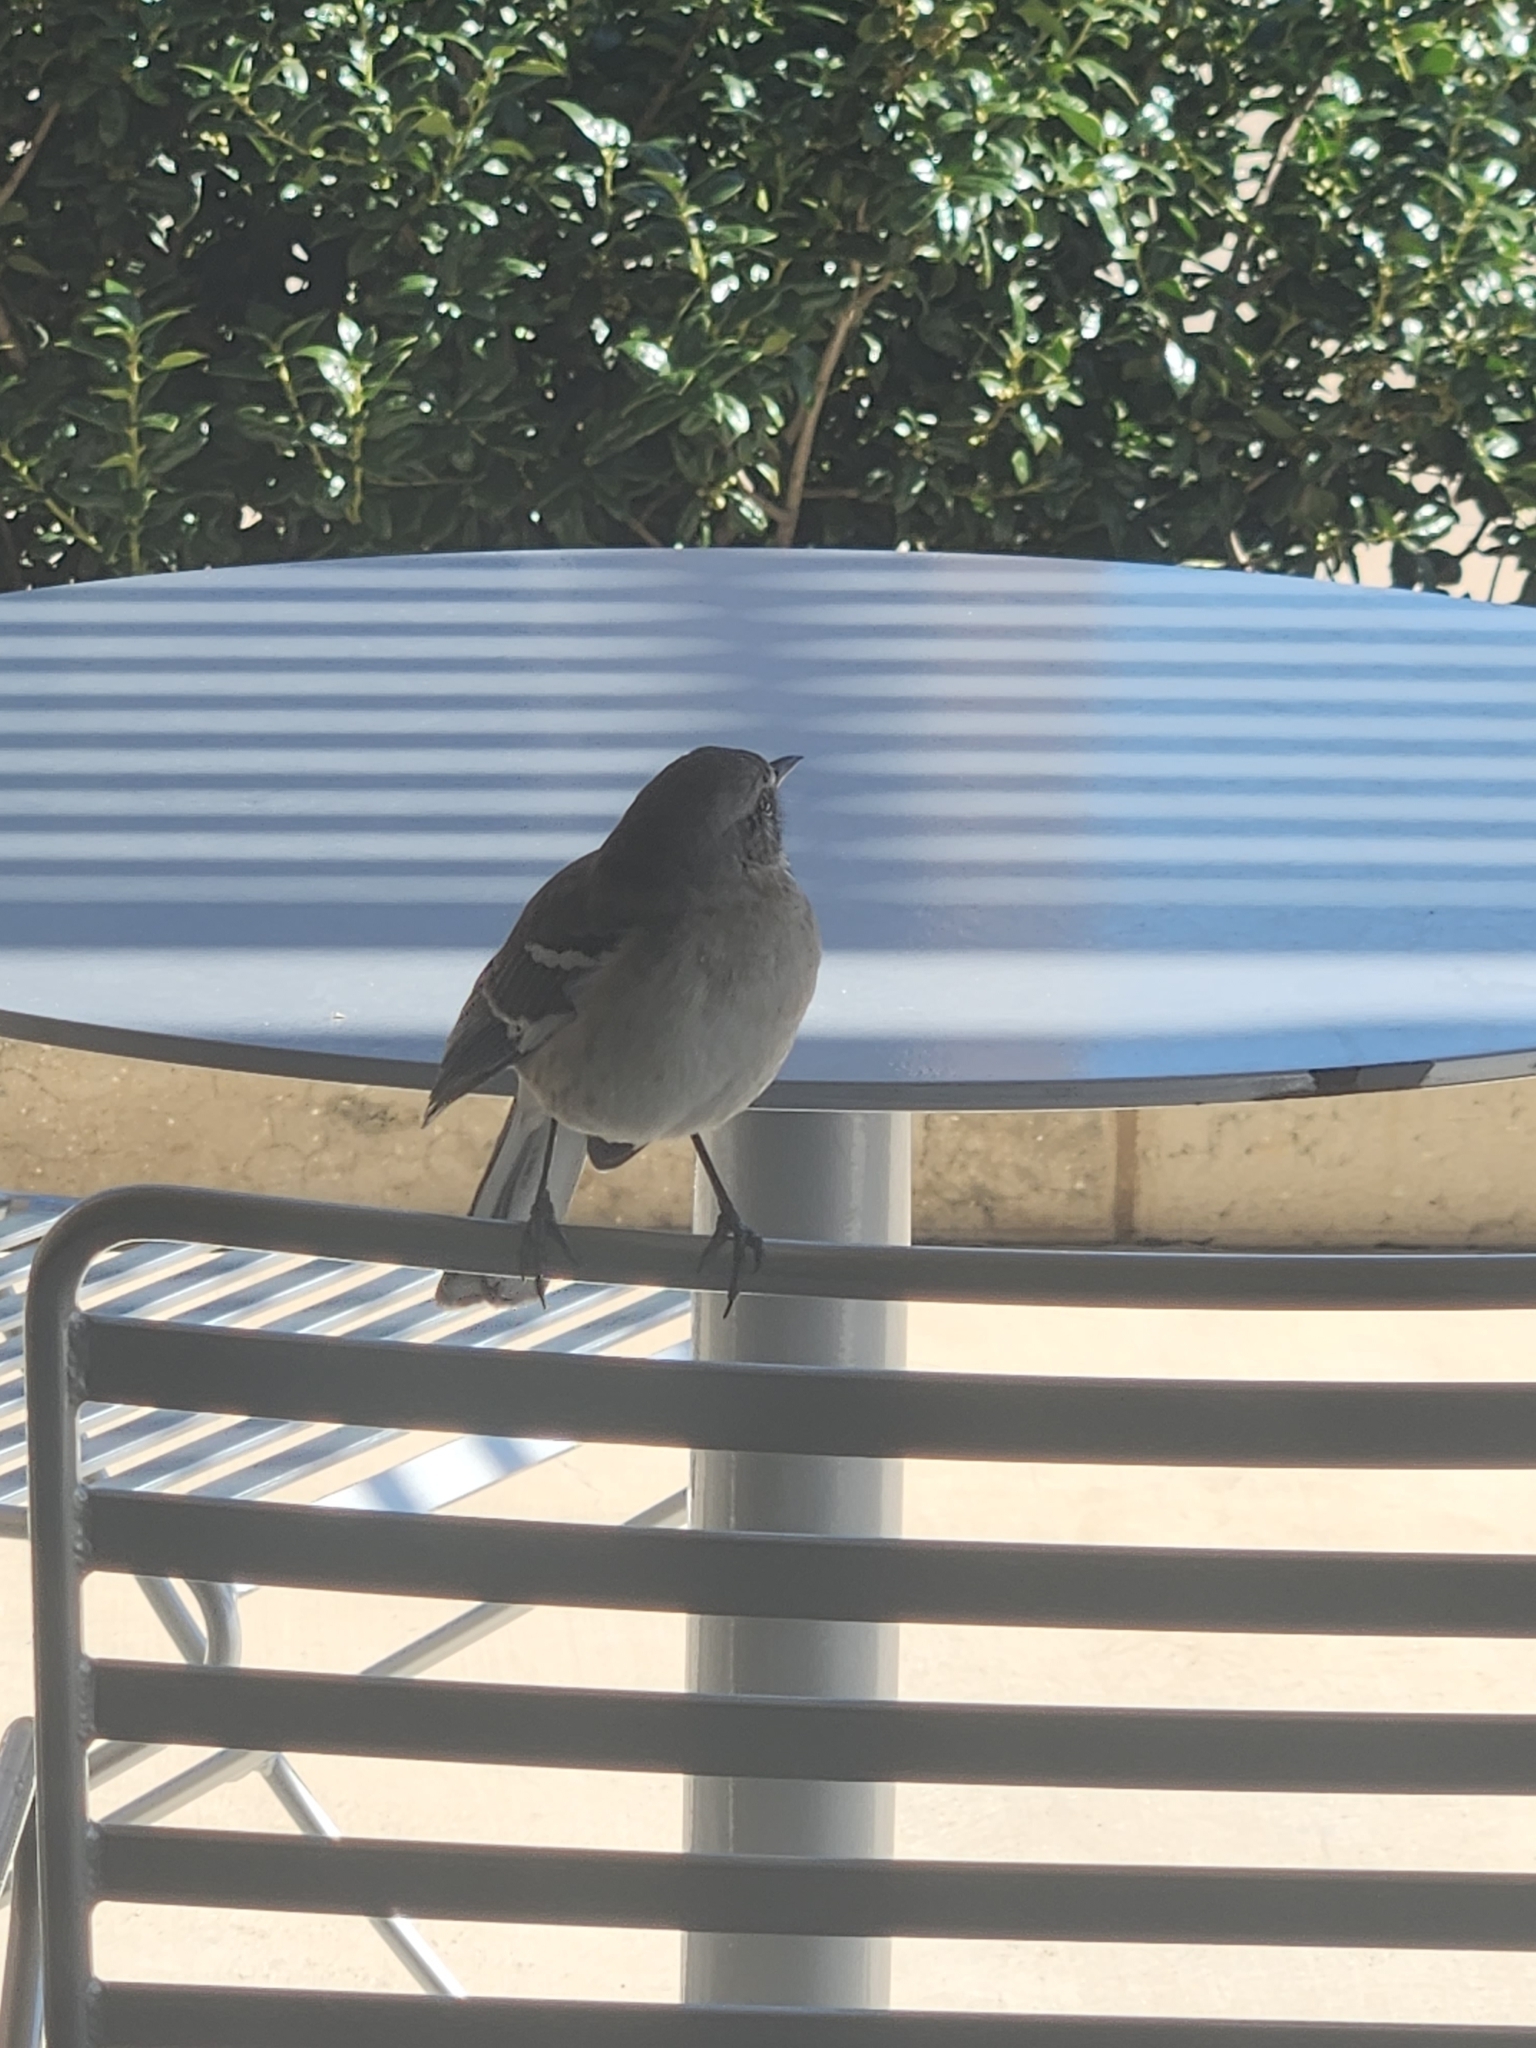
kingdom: Animalia
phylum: Chordata
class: Aves
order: Passeriformes
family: Mimidae
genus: Mimus
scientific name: Mimus polyglottos
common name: Northern mockingbird
